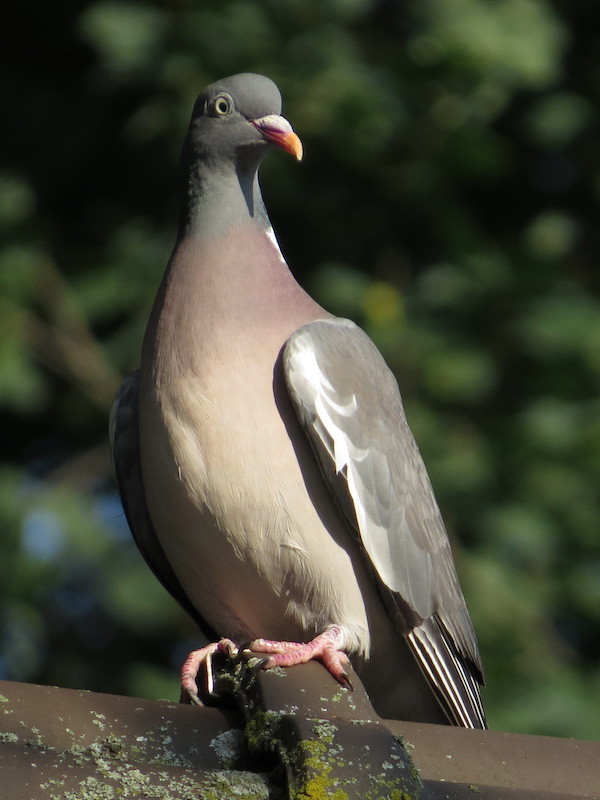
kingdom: Animalia
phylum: Chordata
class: Aves
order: Columbiformes
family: Columbidae
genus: Columba
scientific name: Columba palumbus
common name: Common wood pigeon
